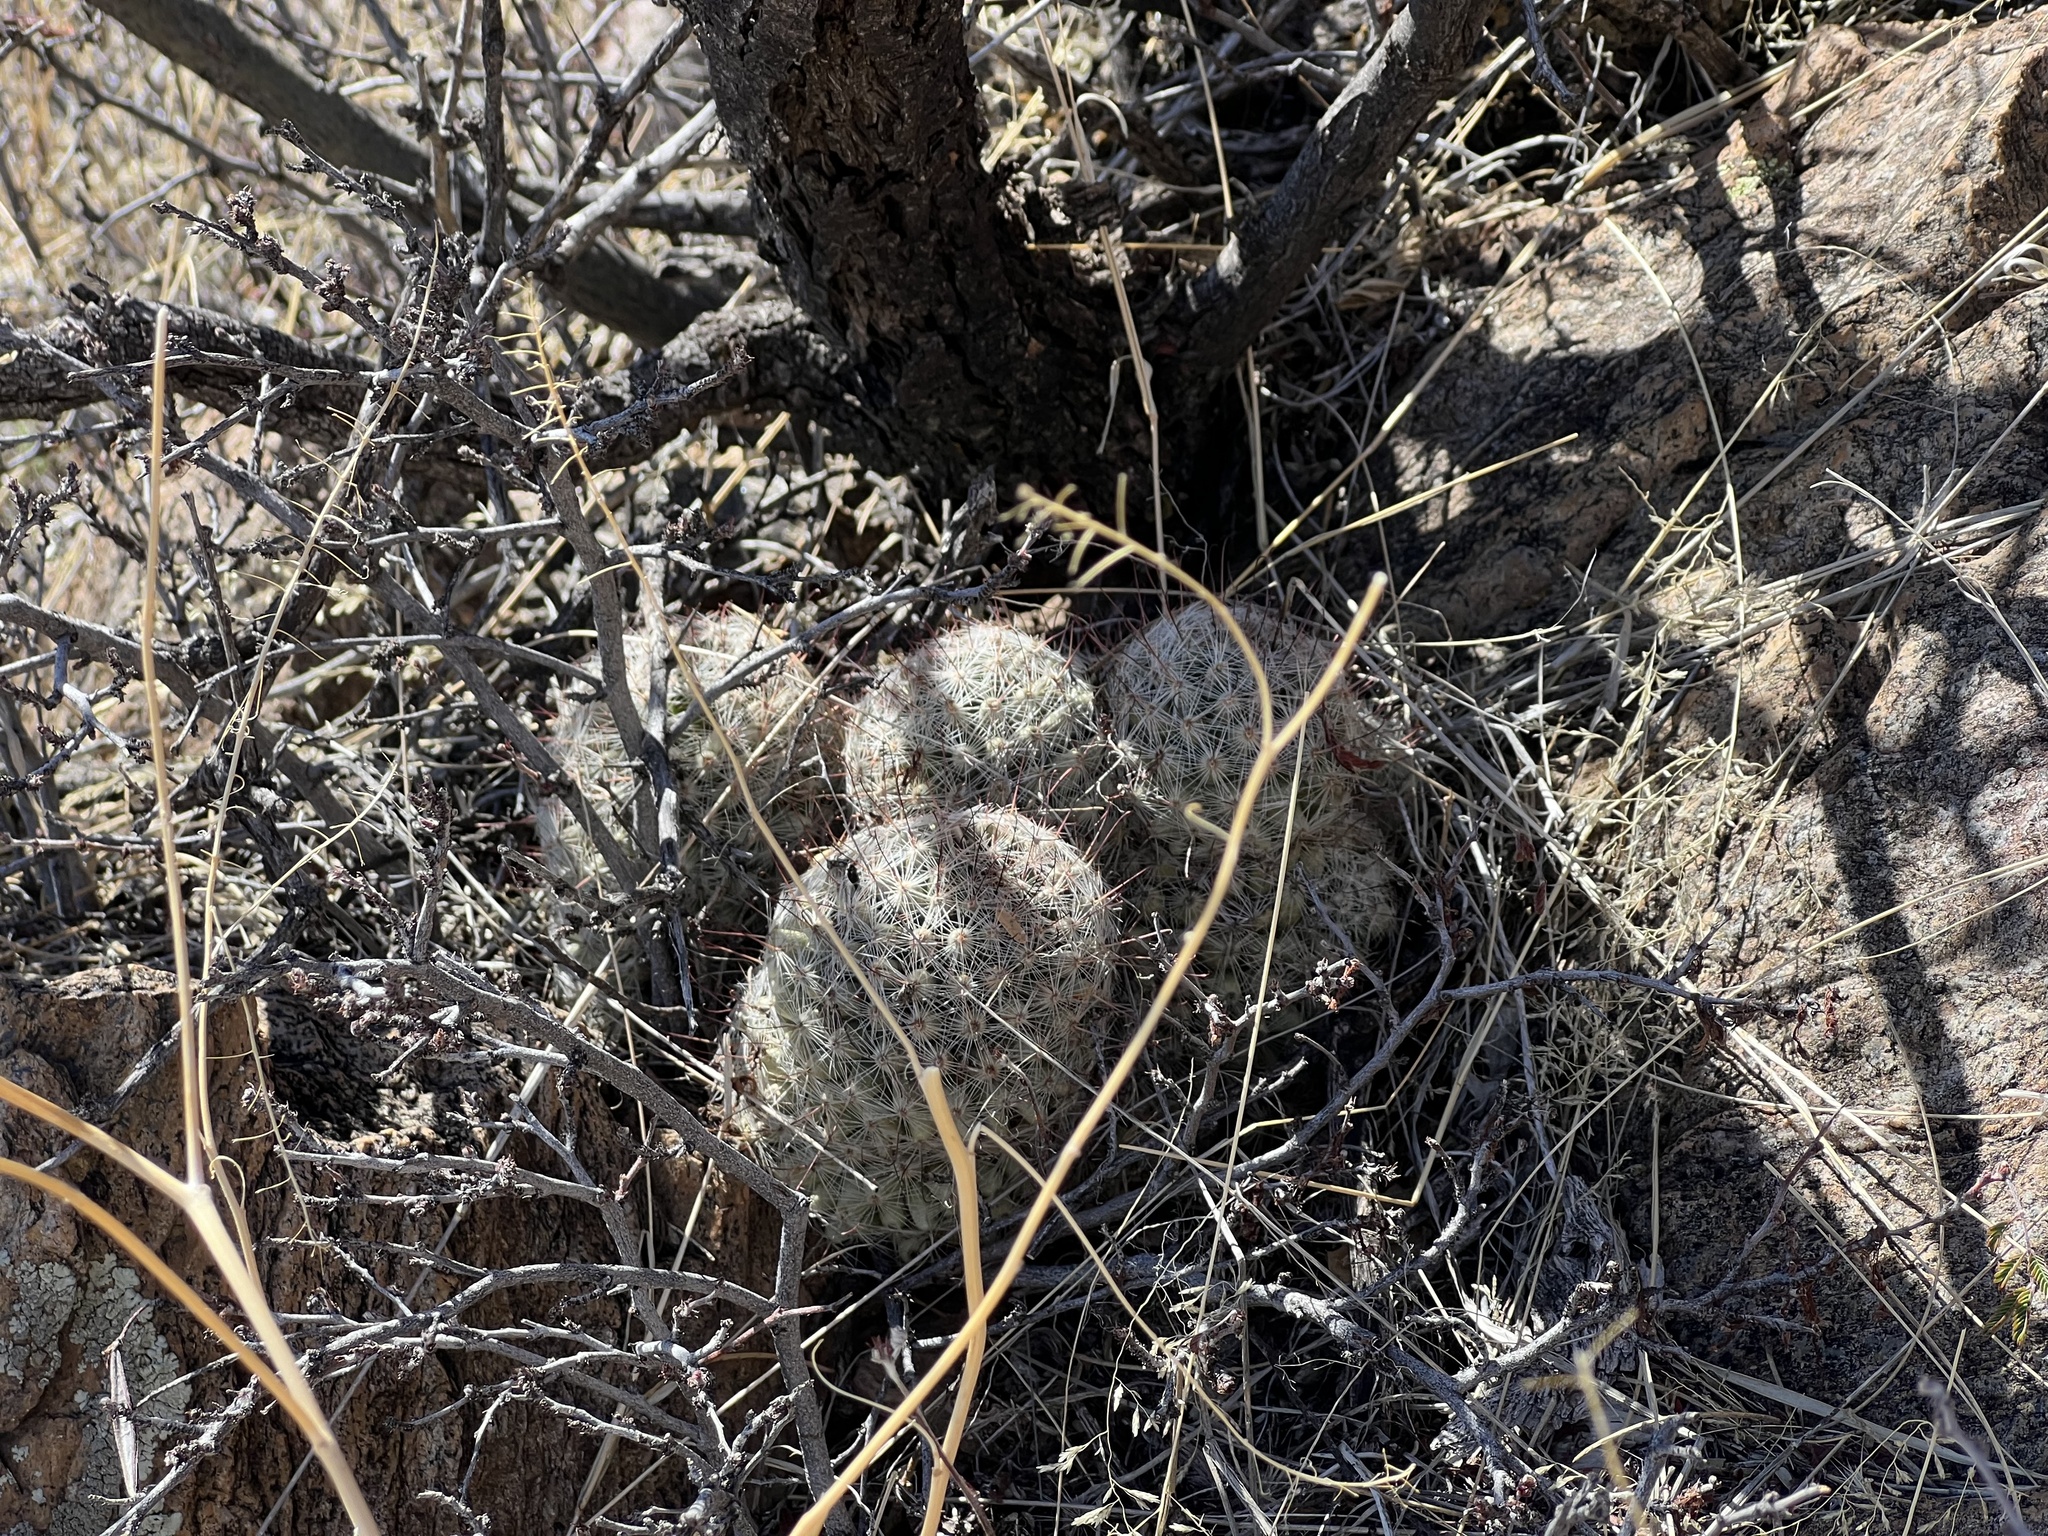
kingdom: Plantae
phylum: Tracheophyta
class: Magnoliopsida
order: Caryophyllales
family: Cactaceae
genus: Cochemiea
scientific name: Cochemiea grahamii
